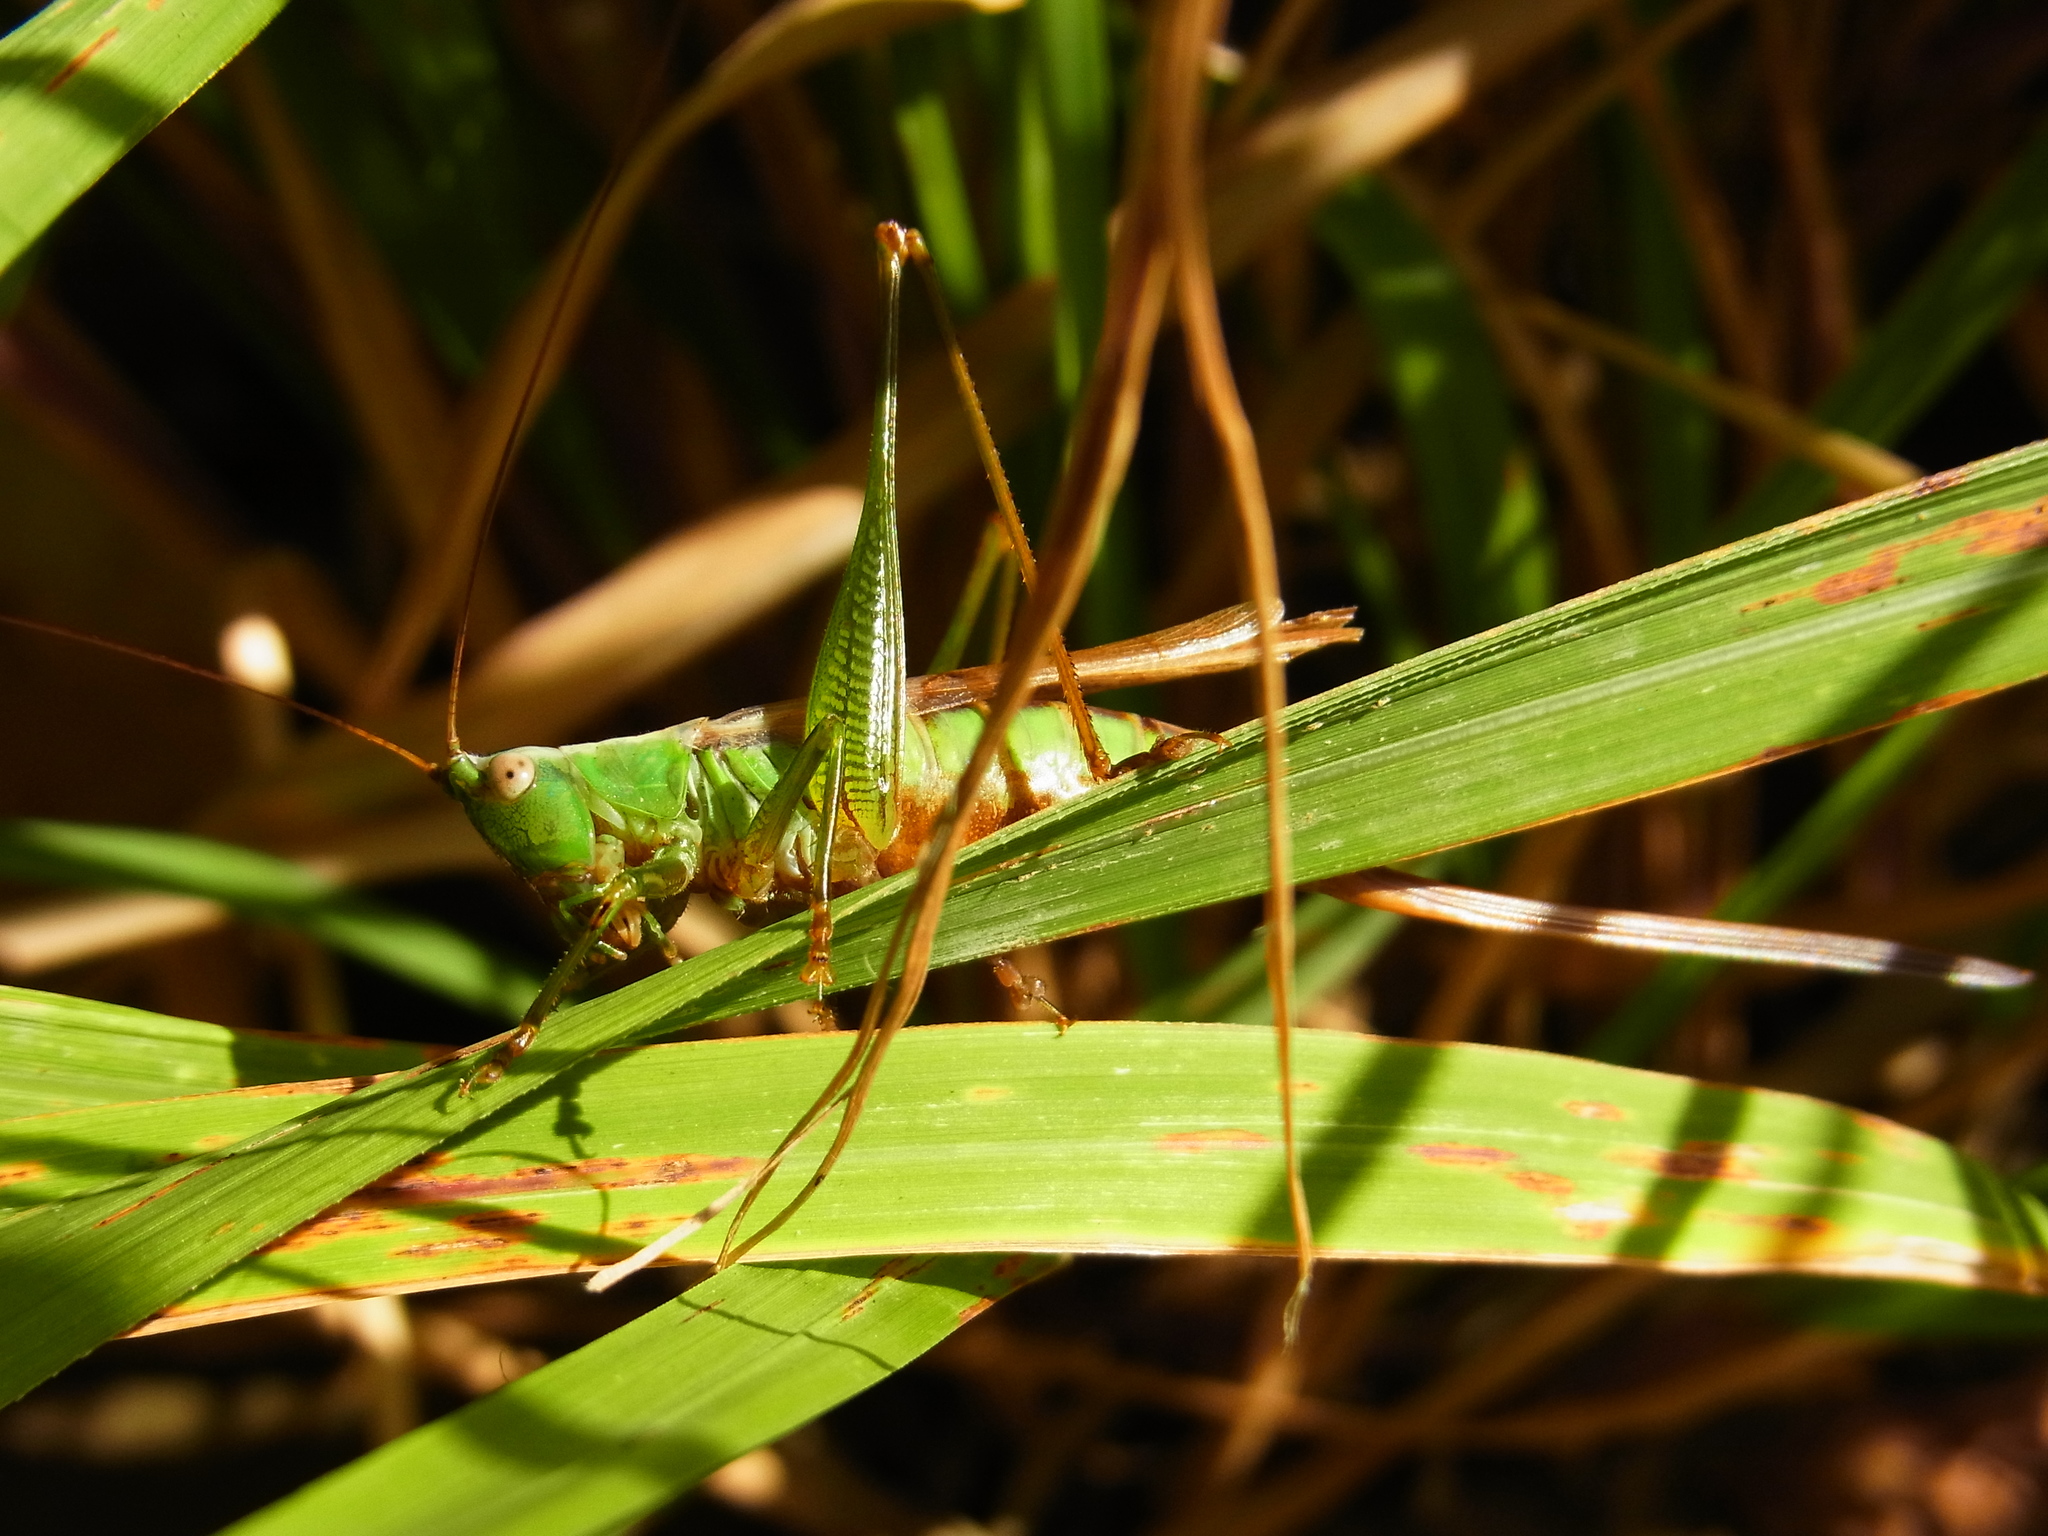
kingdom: Animalia
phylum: Arthropoda
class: Insecta
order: Orthoptera
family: Tettigoniidae
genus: Conocephalus
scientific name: Conocephalus exemptus
